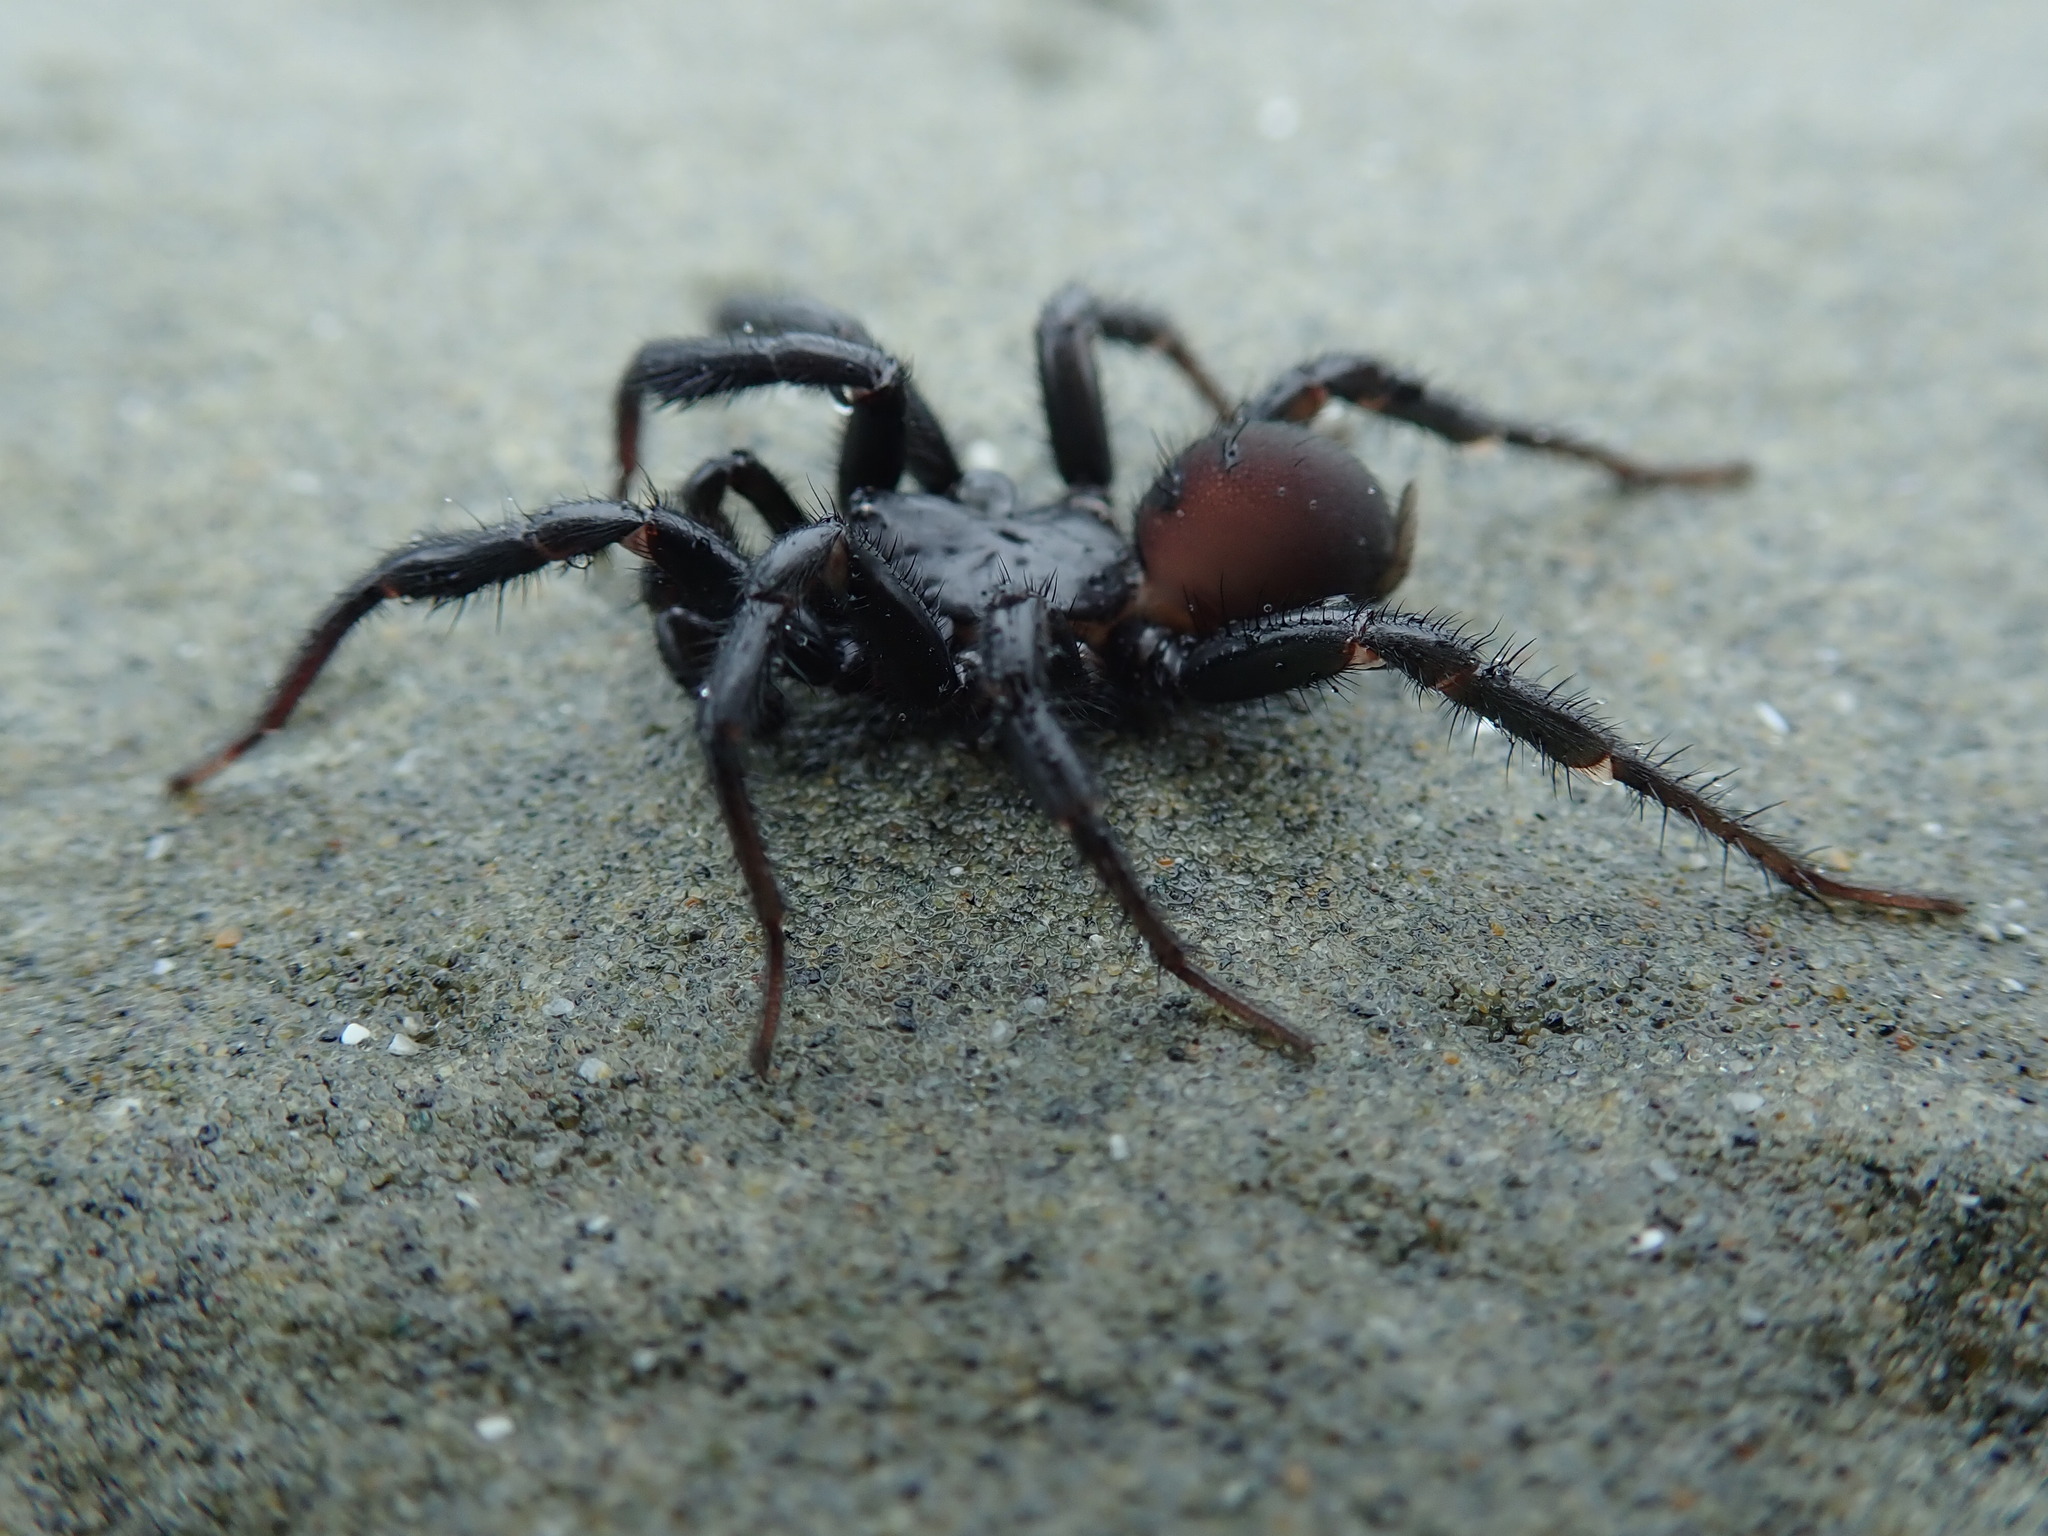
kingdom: Animalia
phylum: Arthropoda
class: Arachnida
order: Araneae
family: Antrodiaetidae
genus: Antrodiaetus
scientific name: Antrodiaetus pacificus
